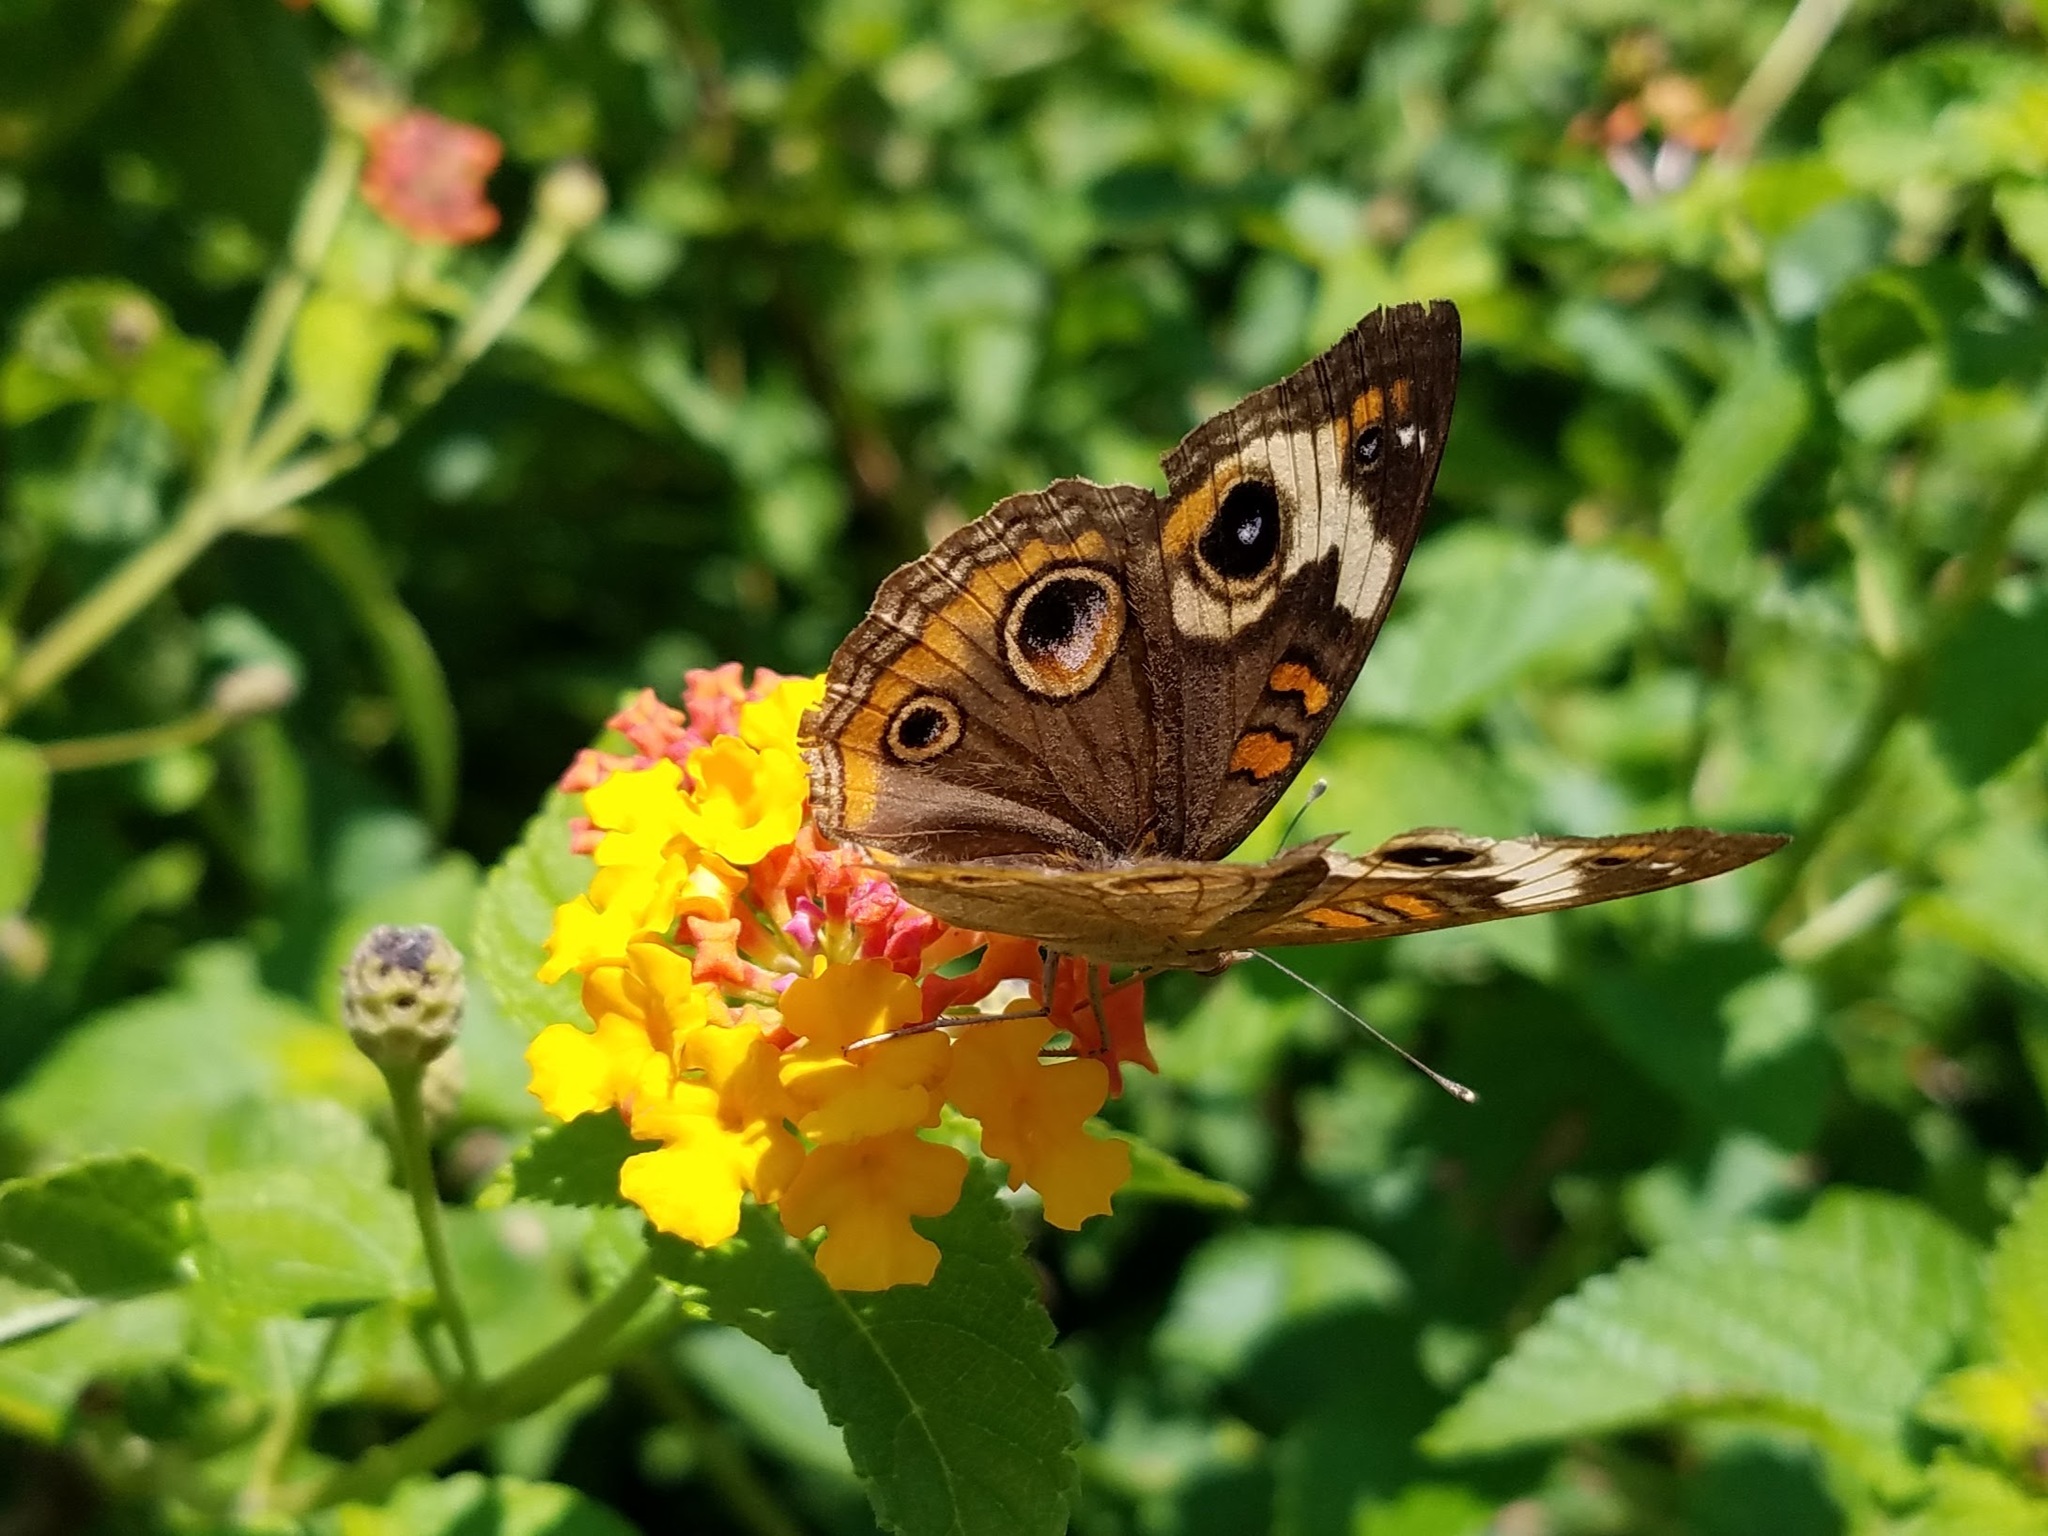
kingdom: Animalia
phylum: Arthropoda
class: Insecta
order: Lepidoptera
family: Nymphalidae
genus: Junonia
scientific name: Junonia coenia
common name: Common buckeye
